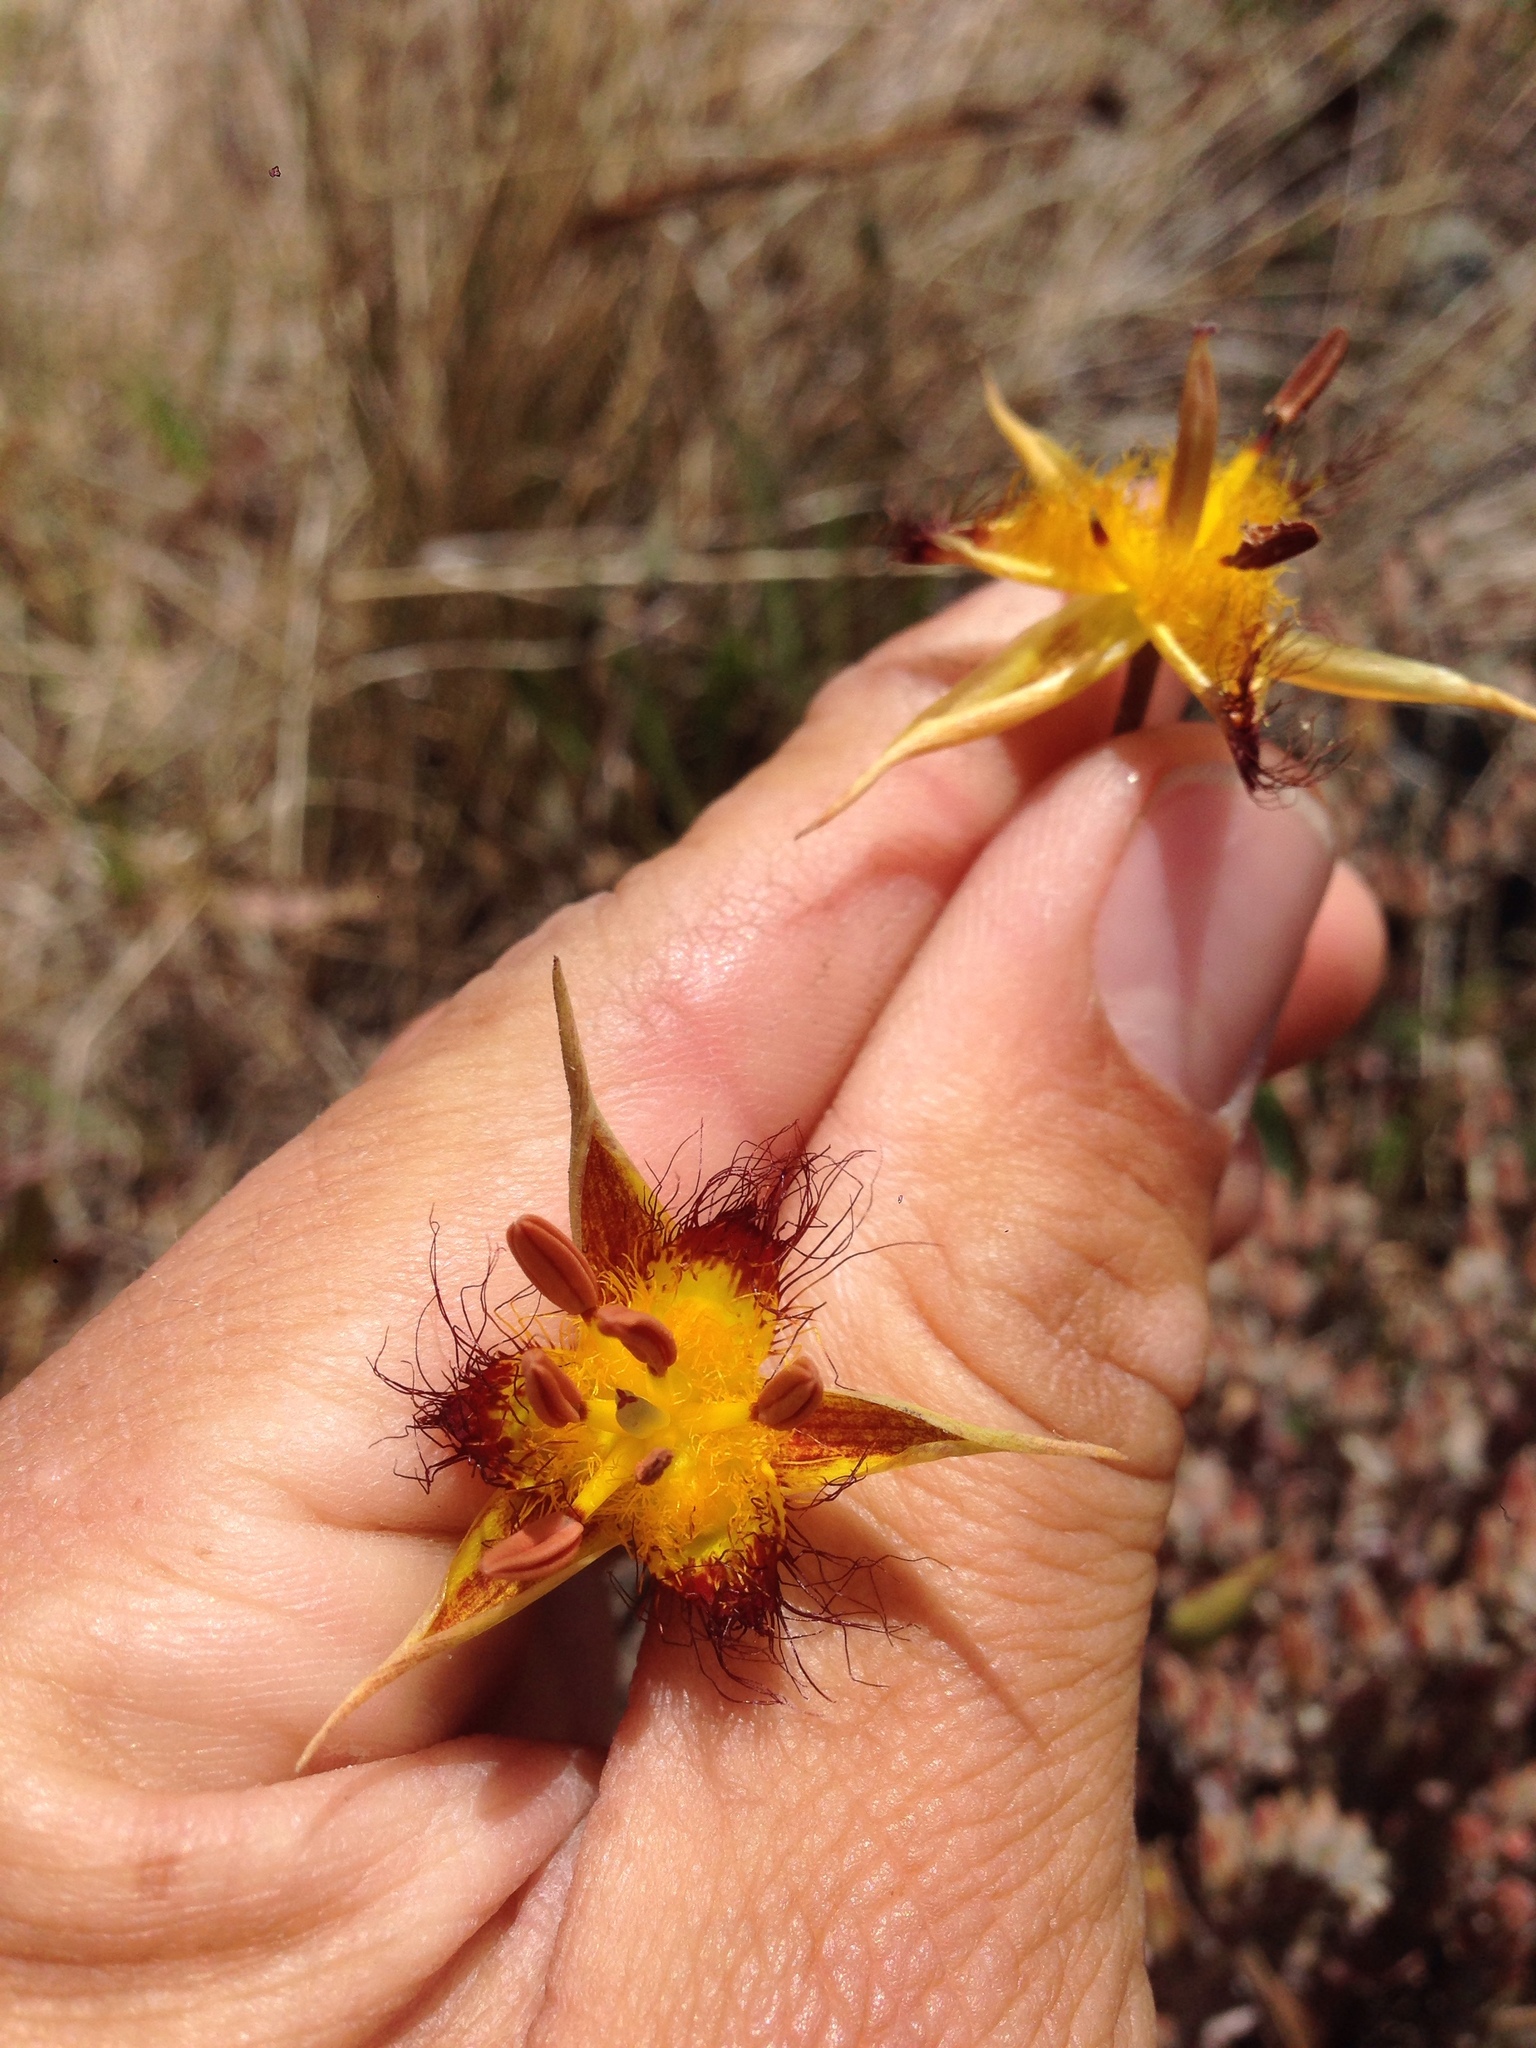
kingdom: Plantae
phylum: Tracheophyta
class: Liliopsida
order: Liliales
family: Liliaceae
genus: Calochortus
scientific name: Calochortus obispoensis
